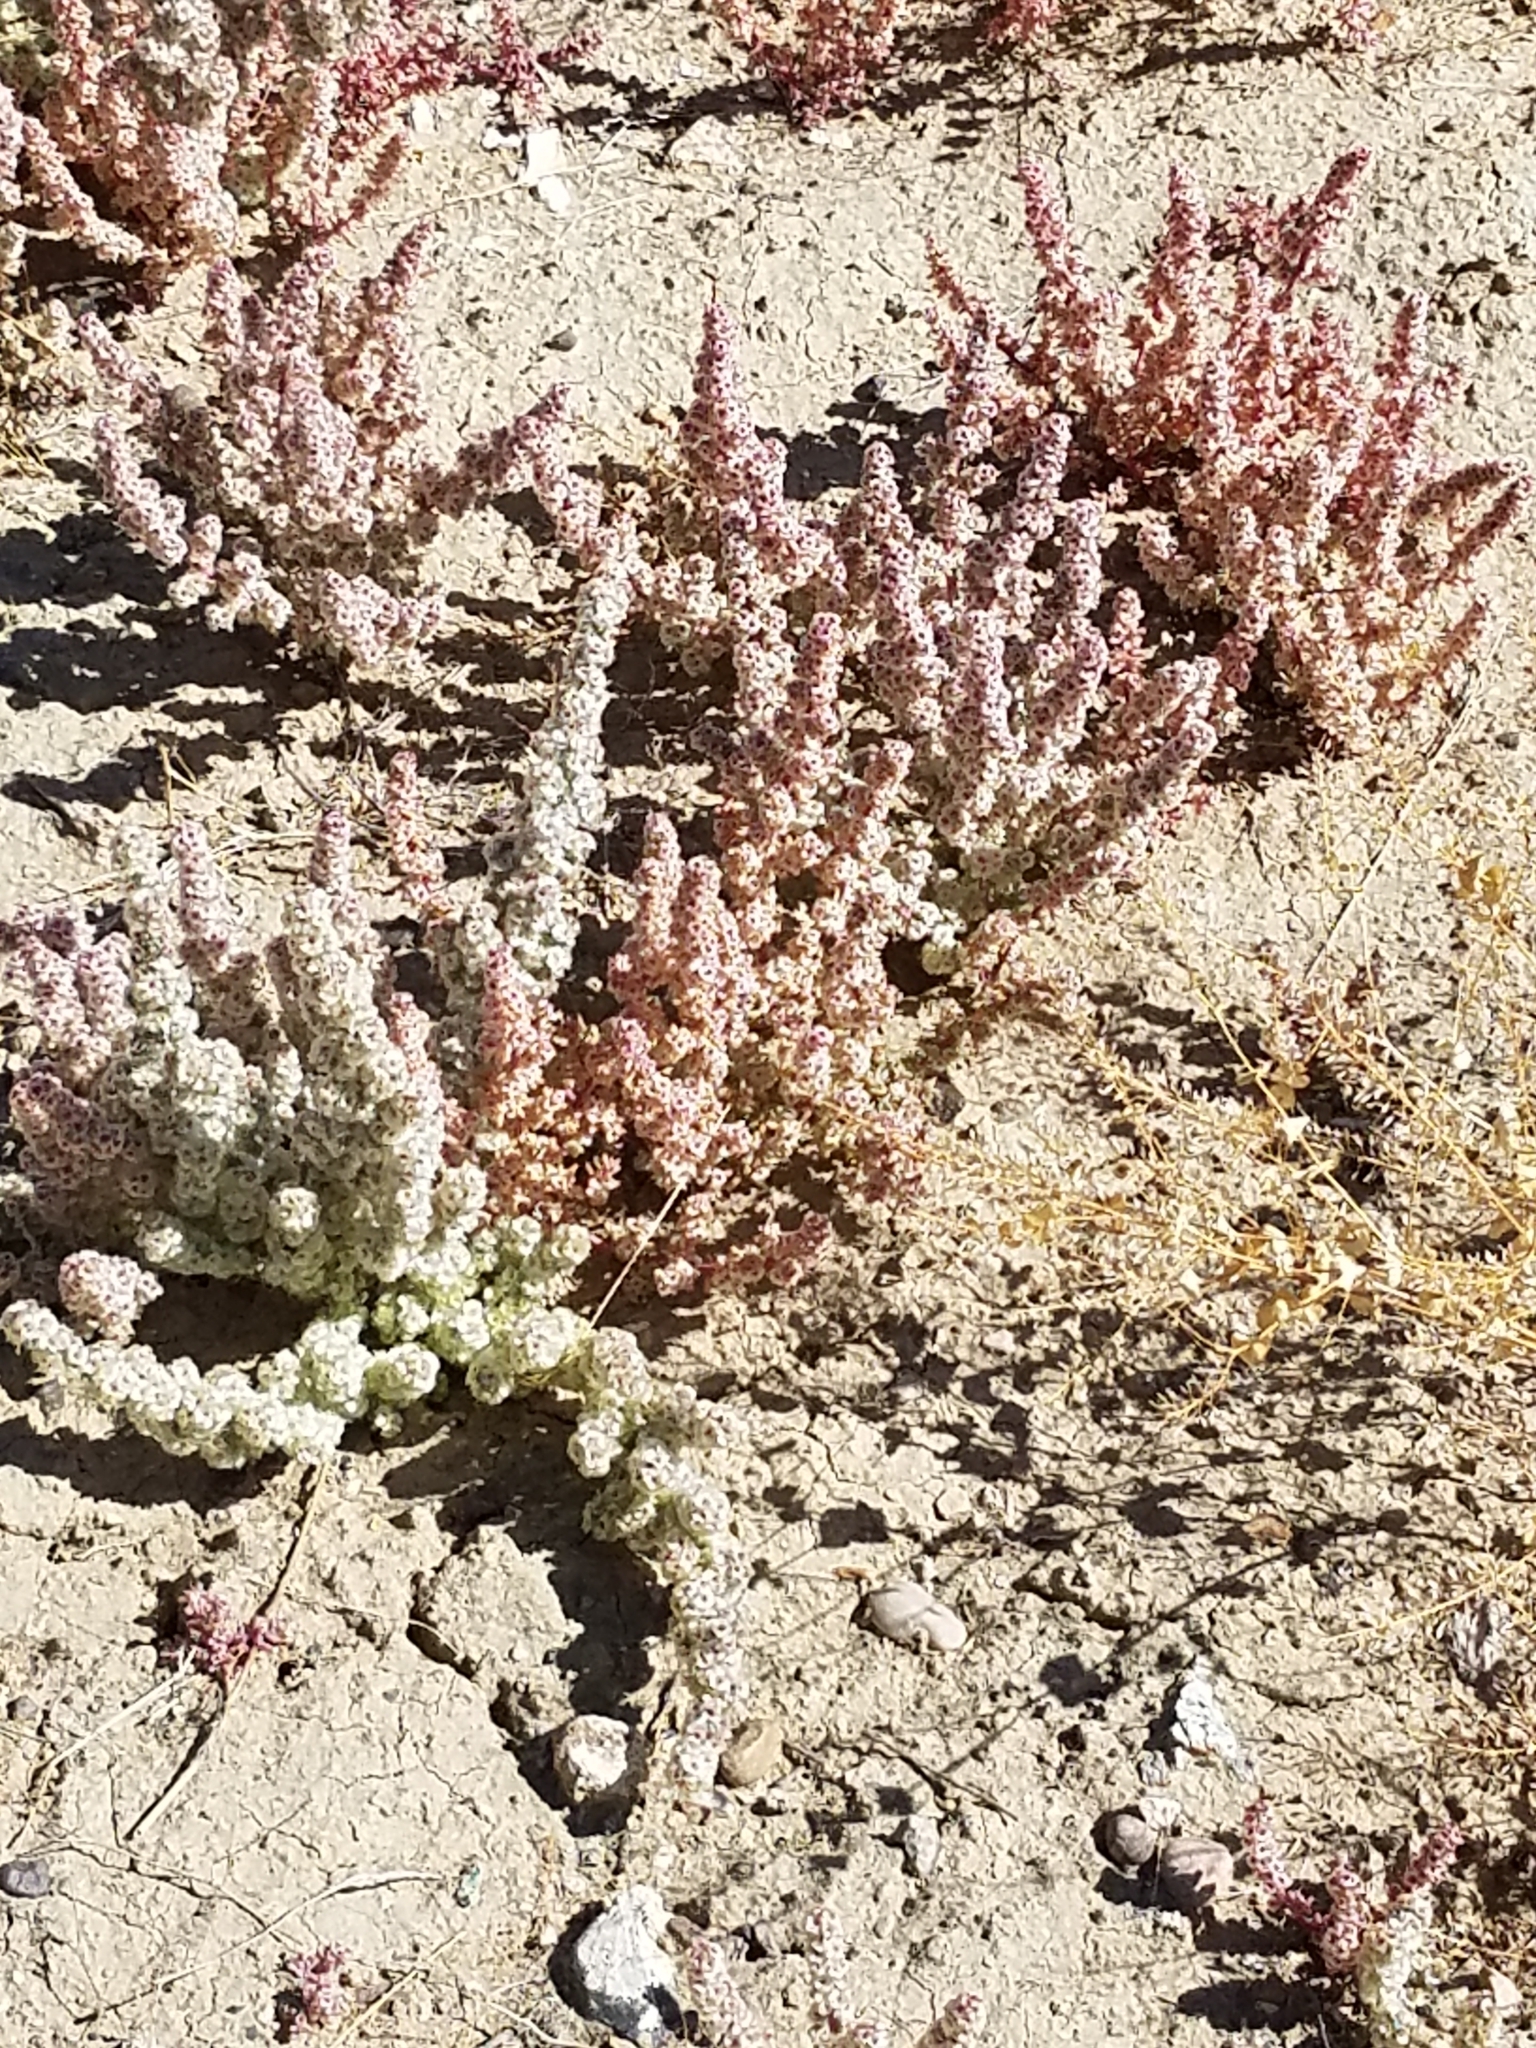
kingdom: Plantae
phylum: Tracheophyta
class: Magnoliopsida
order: Caryophyllales
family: Amaranthaceae
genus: Halogeton
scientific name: Halogeton glomeratus
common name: Saltlover
